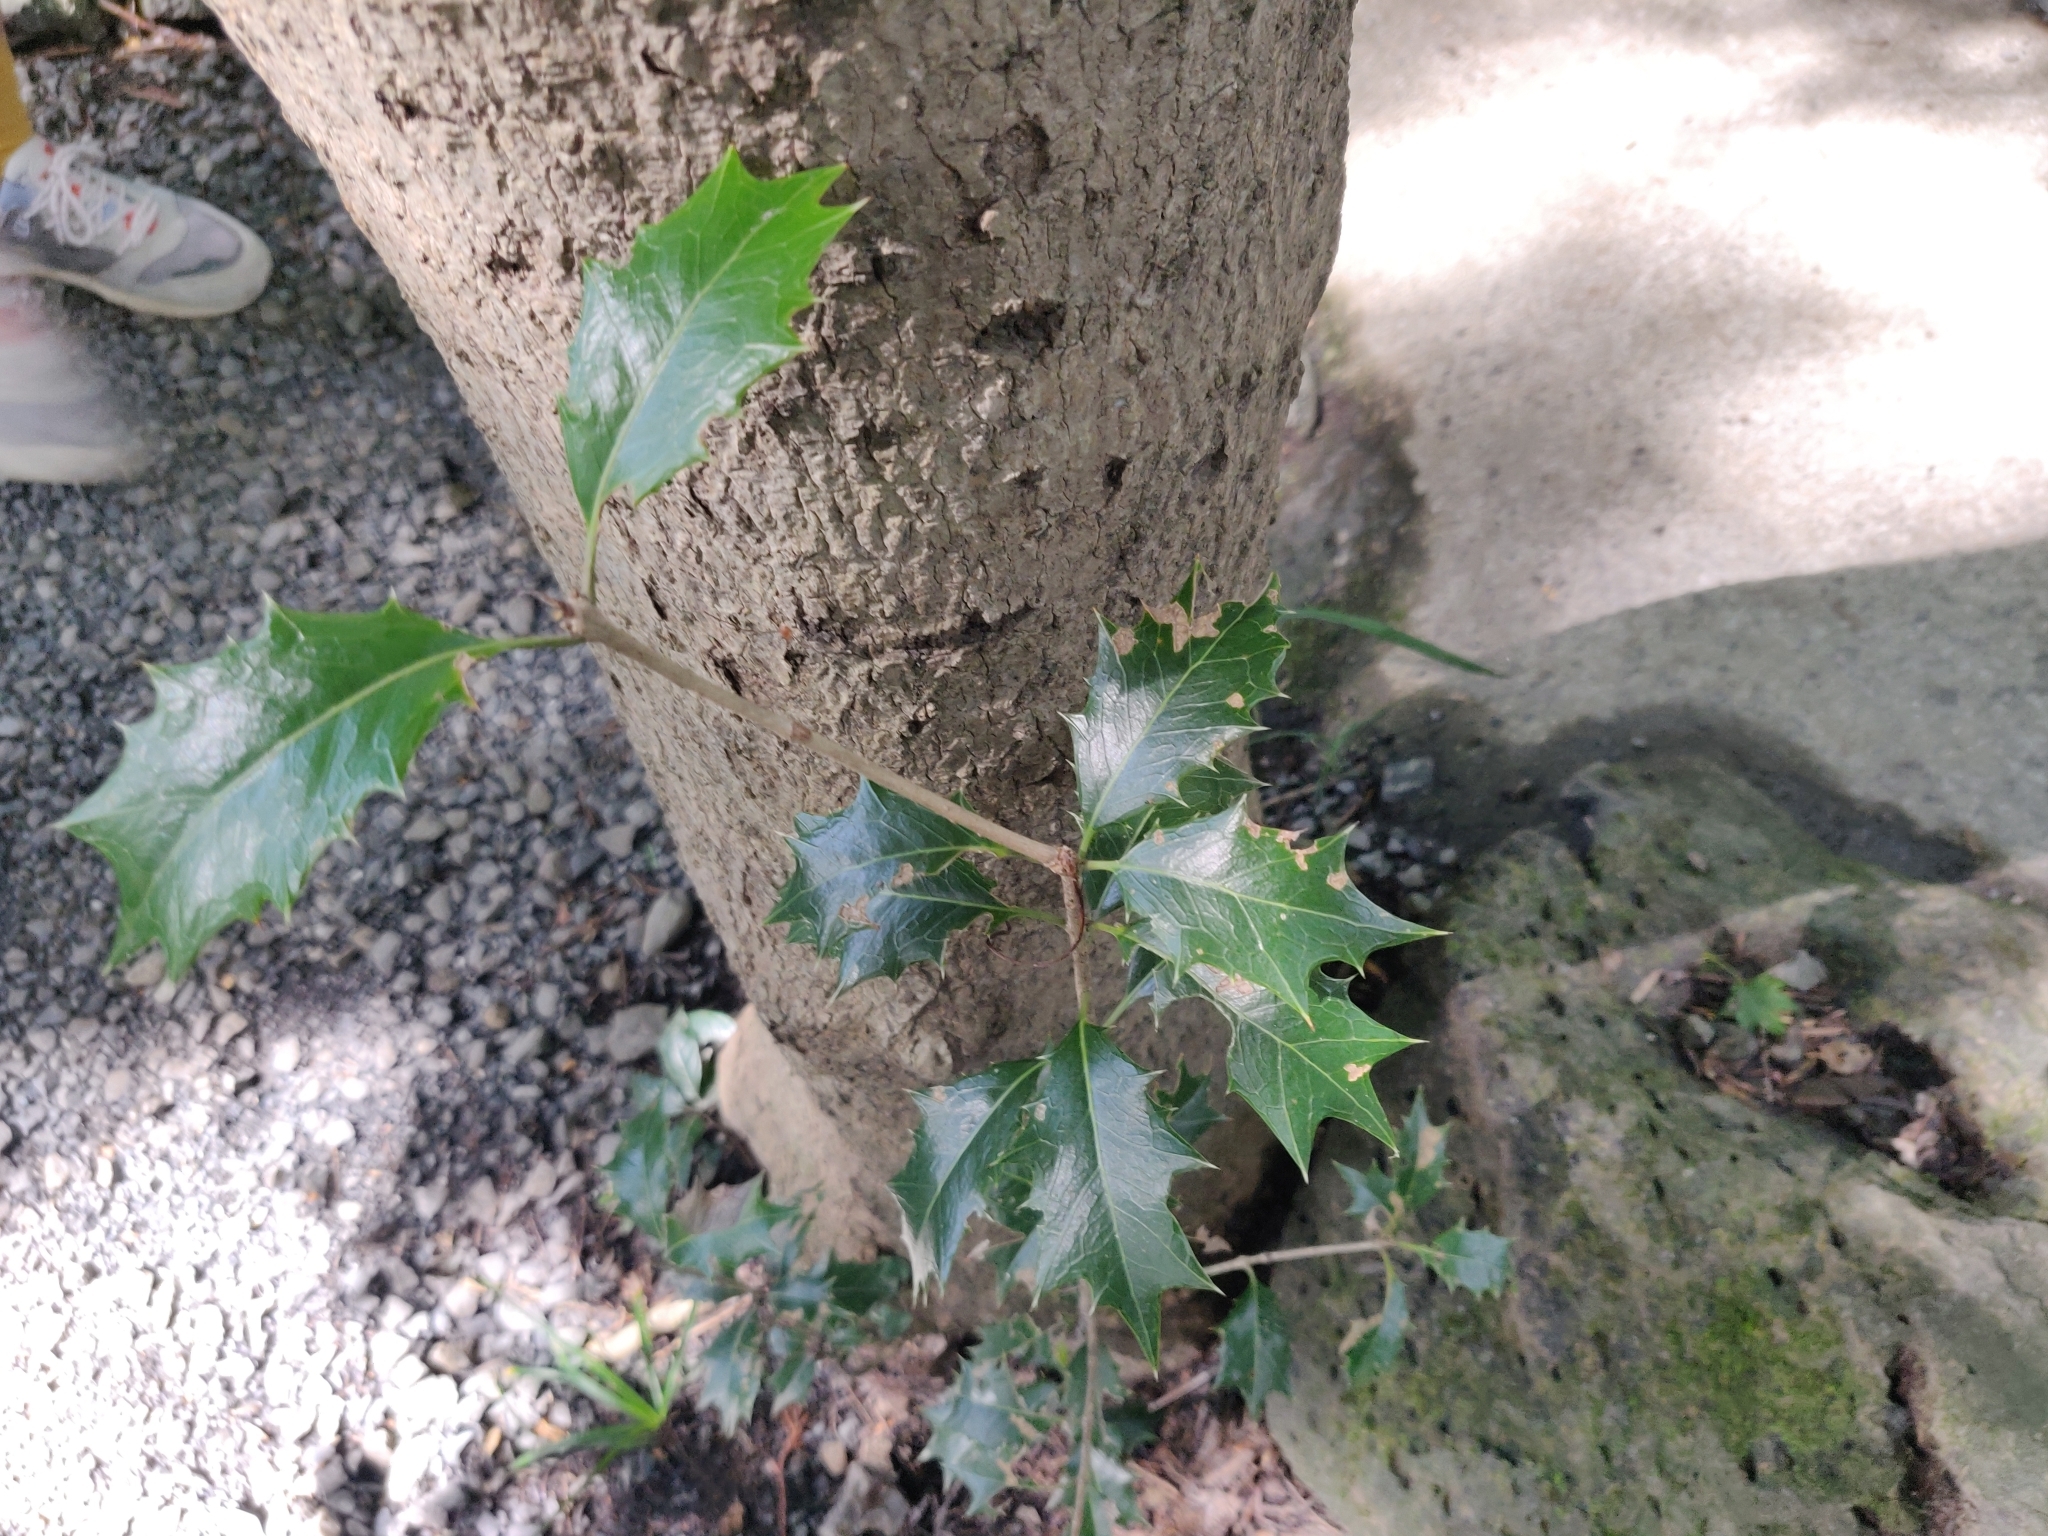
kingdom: Plantae
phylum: Tracheophyta
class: Magnoliopsida
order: Lamiales
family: Oleaceae
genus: Osmanthus
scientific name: Osmanthus heterophyllus
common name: Holly osmanthus
